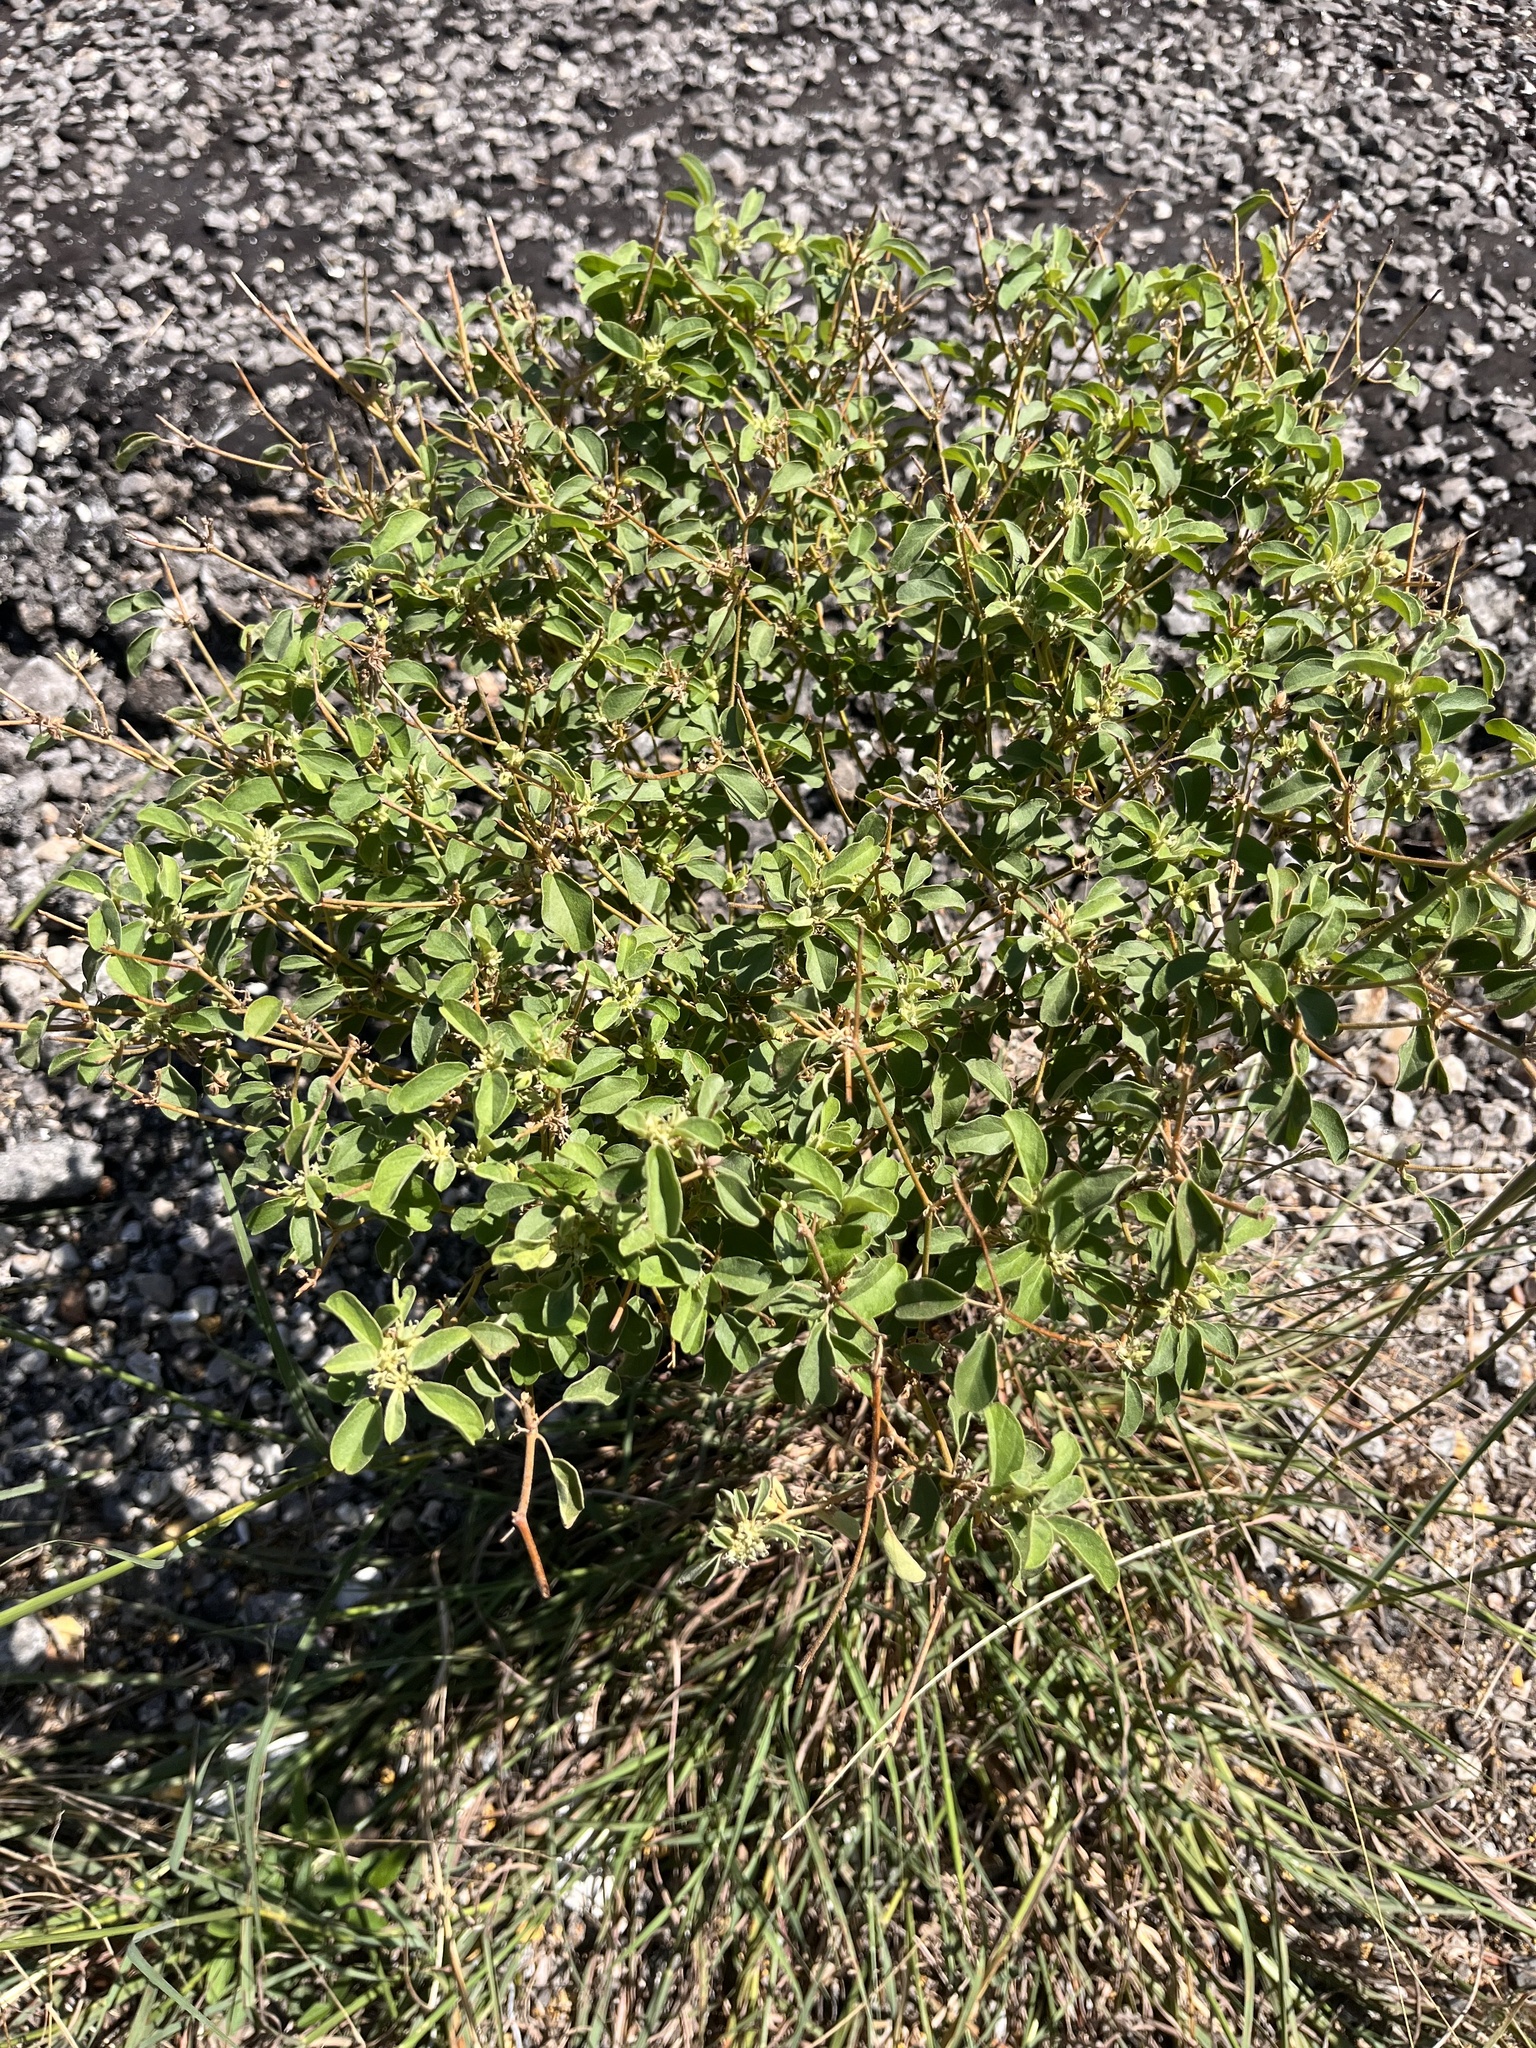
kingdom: Plantae
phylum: Tracheophyta
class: Magnoliopsida
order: Malpighiales
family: Euphorbiaceae
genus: Croton
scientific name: Croton monanthogynus
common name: One-seed croton
